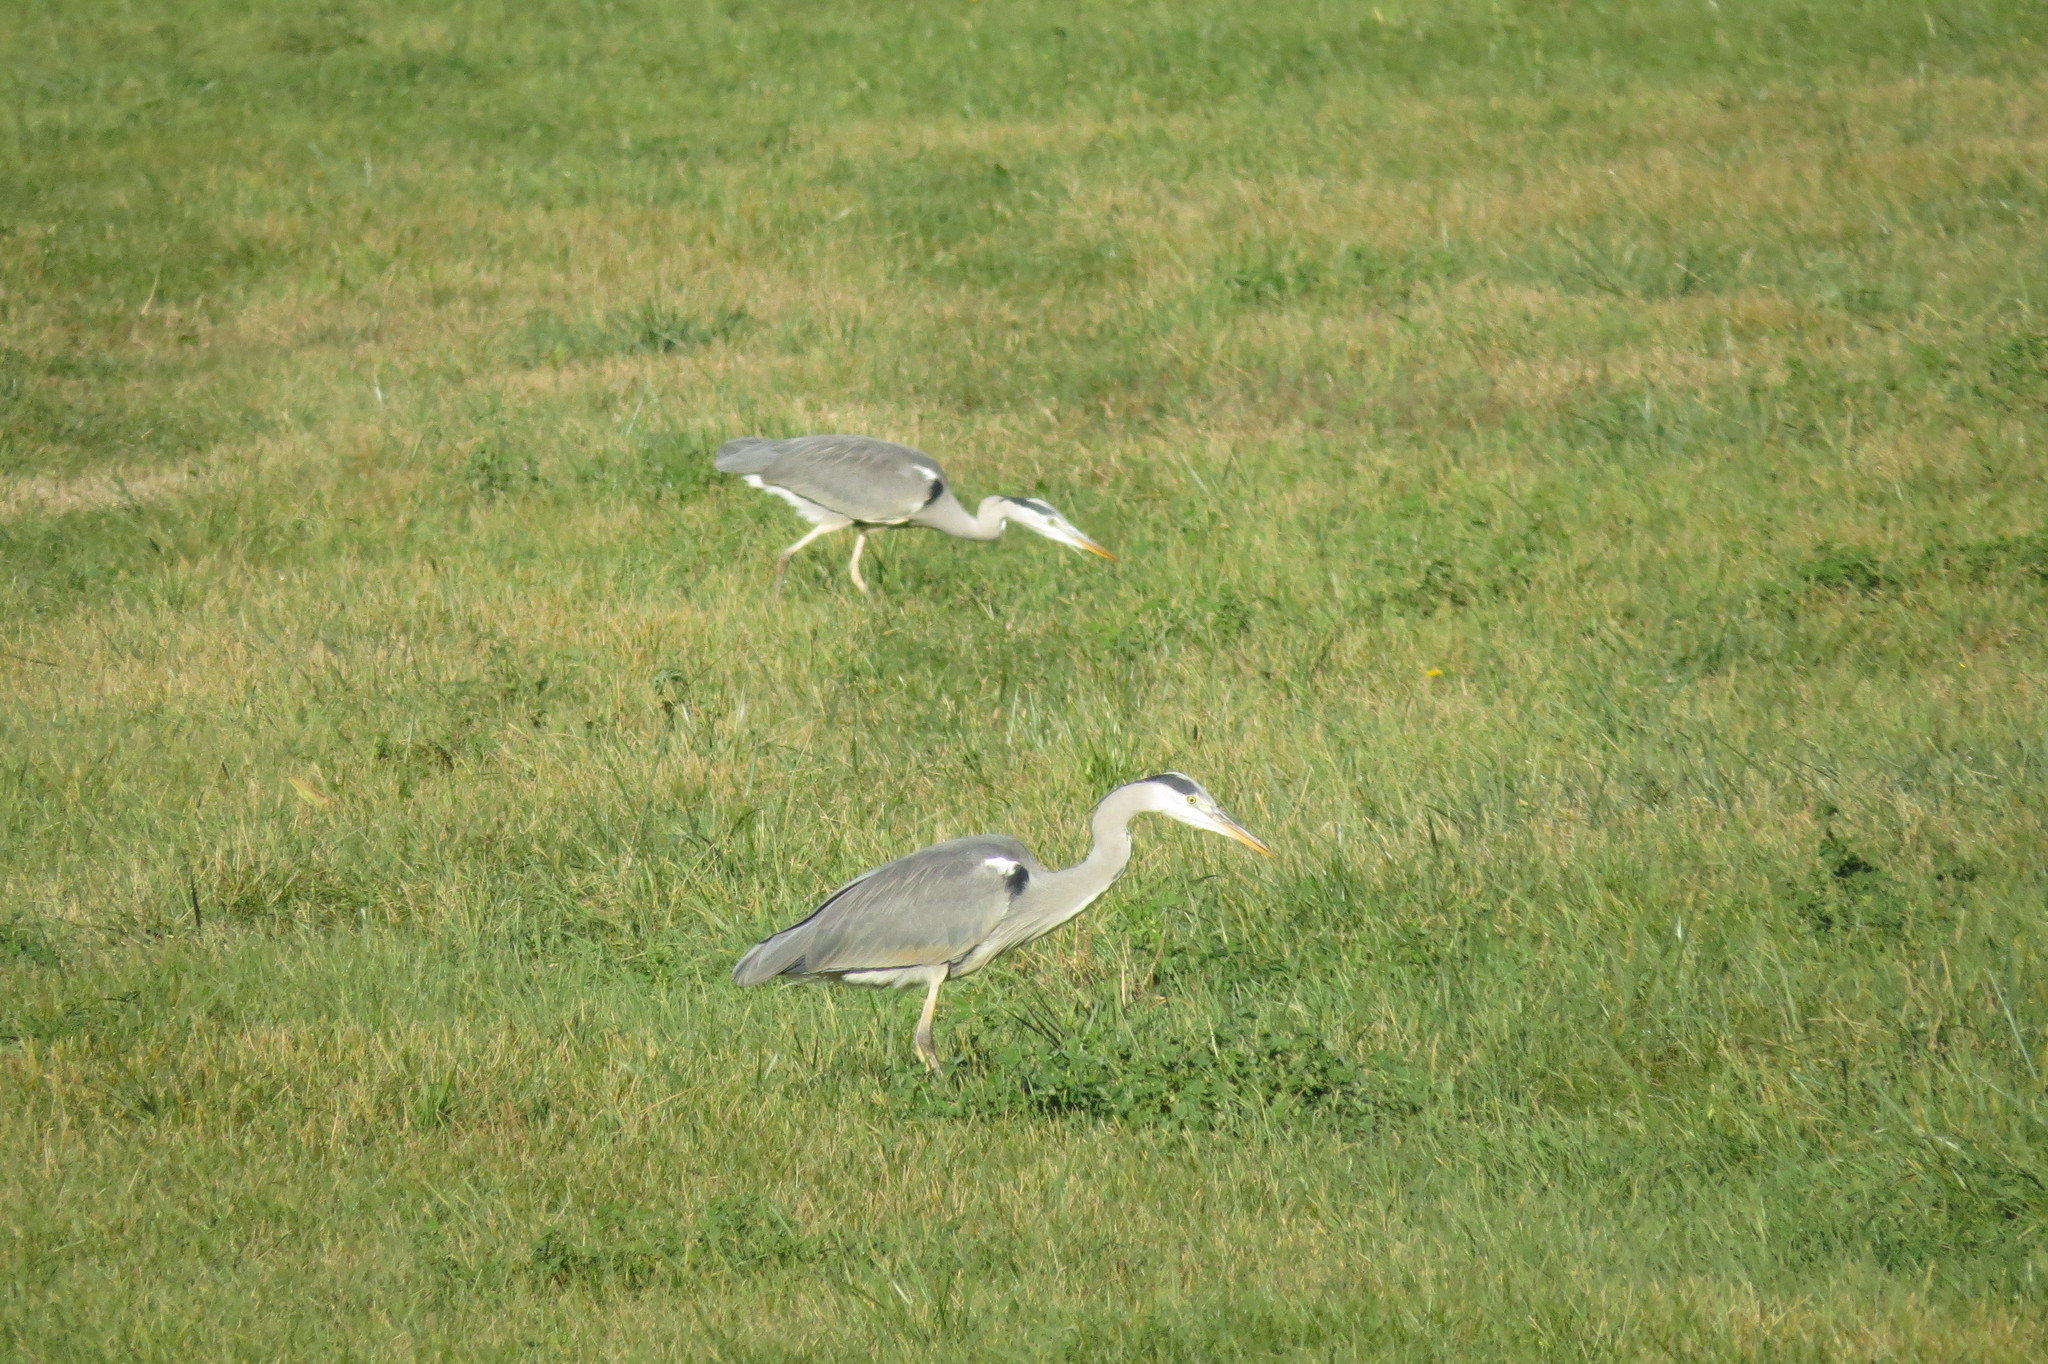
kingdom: Animalia
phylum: Chordata
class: Aves
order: Pelecaniformes
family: Ardeidae
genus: Ardea
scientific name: Ardea cinerea
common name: Grey heron
